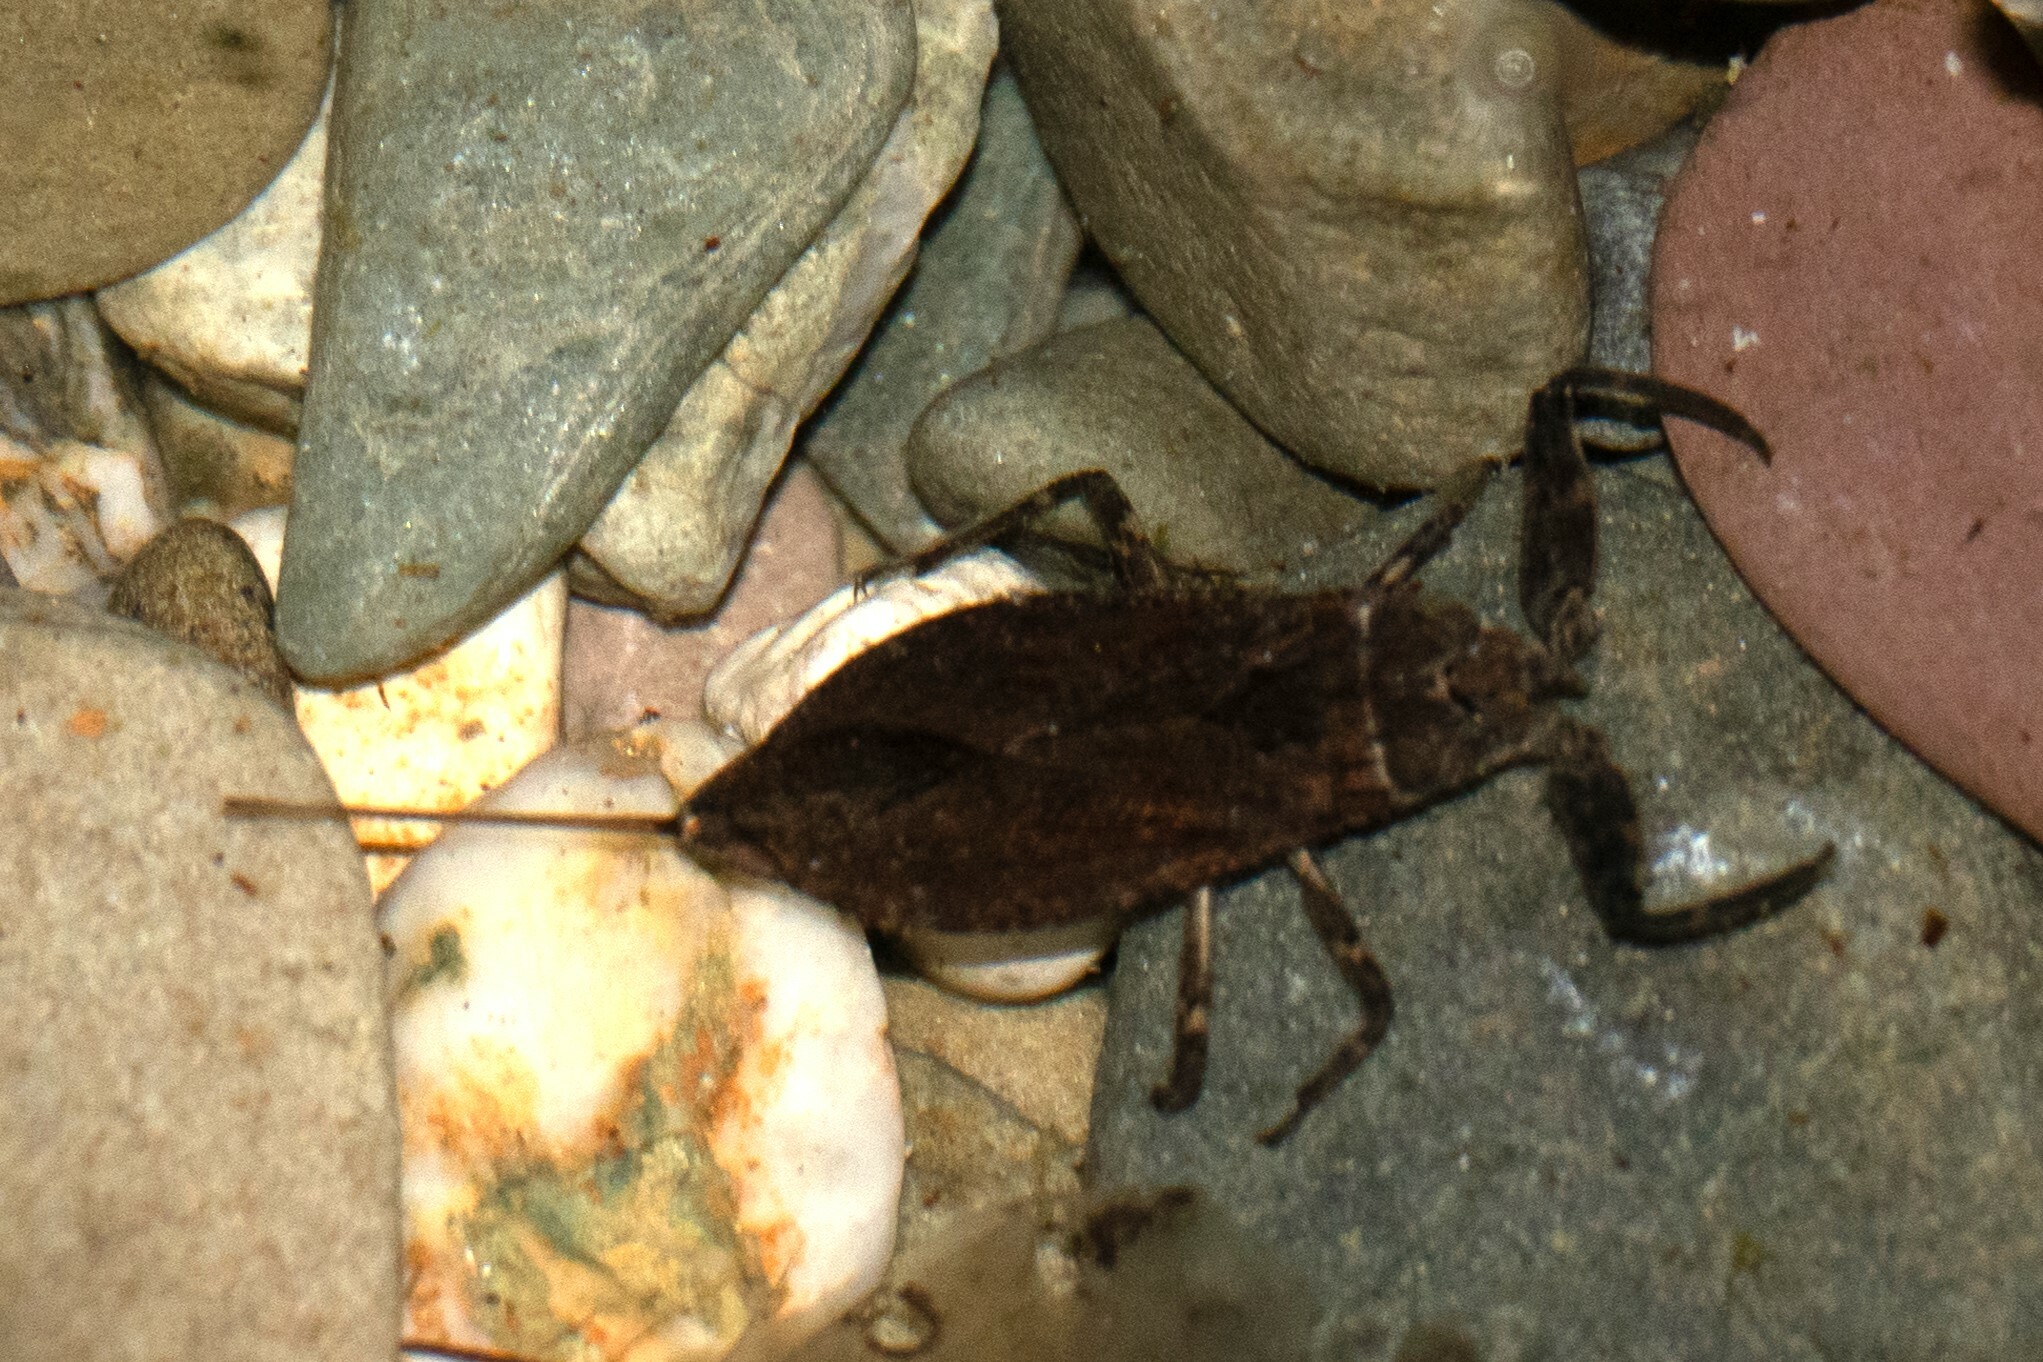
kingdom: Animalia
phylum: Arthropoda
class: Insecta
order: Hemiptera
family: Nepidae
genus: Nepa
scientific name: Nepa cinerea
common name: Water scorpion
